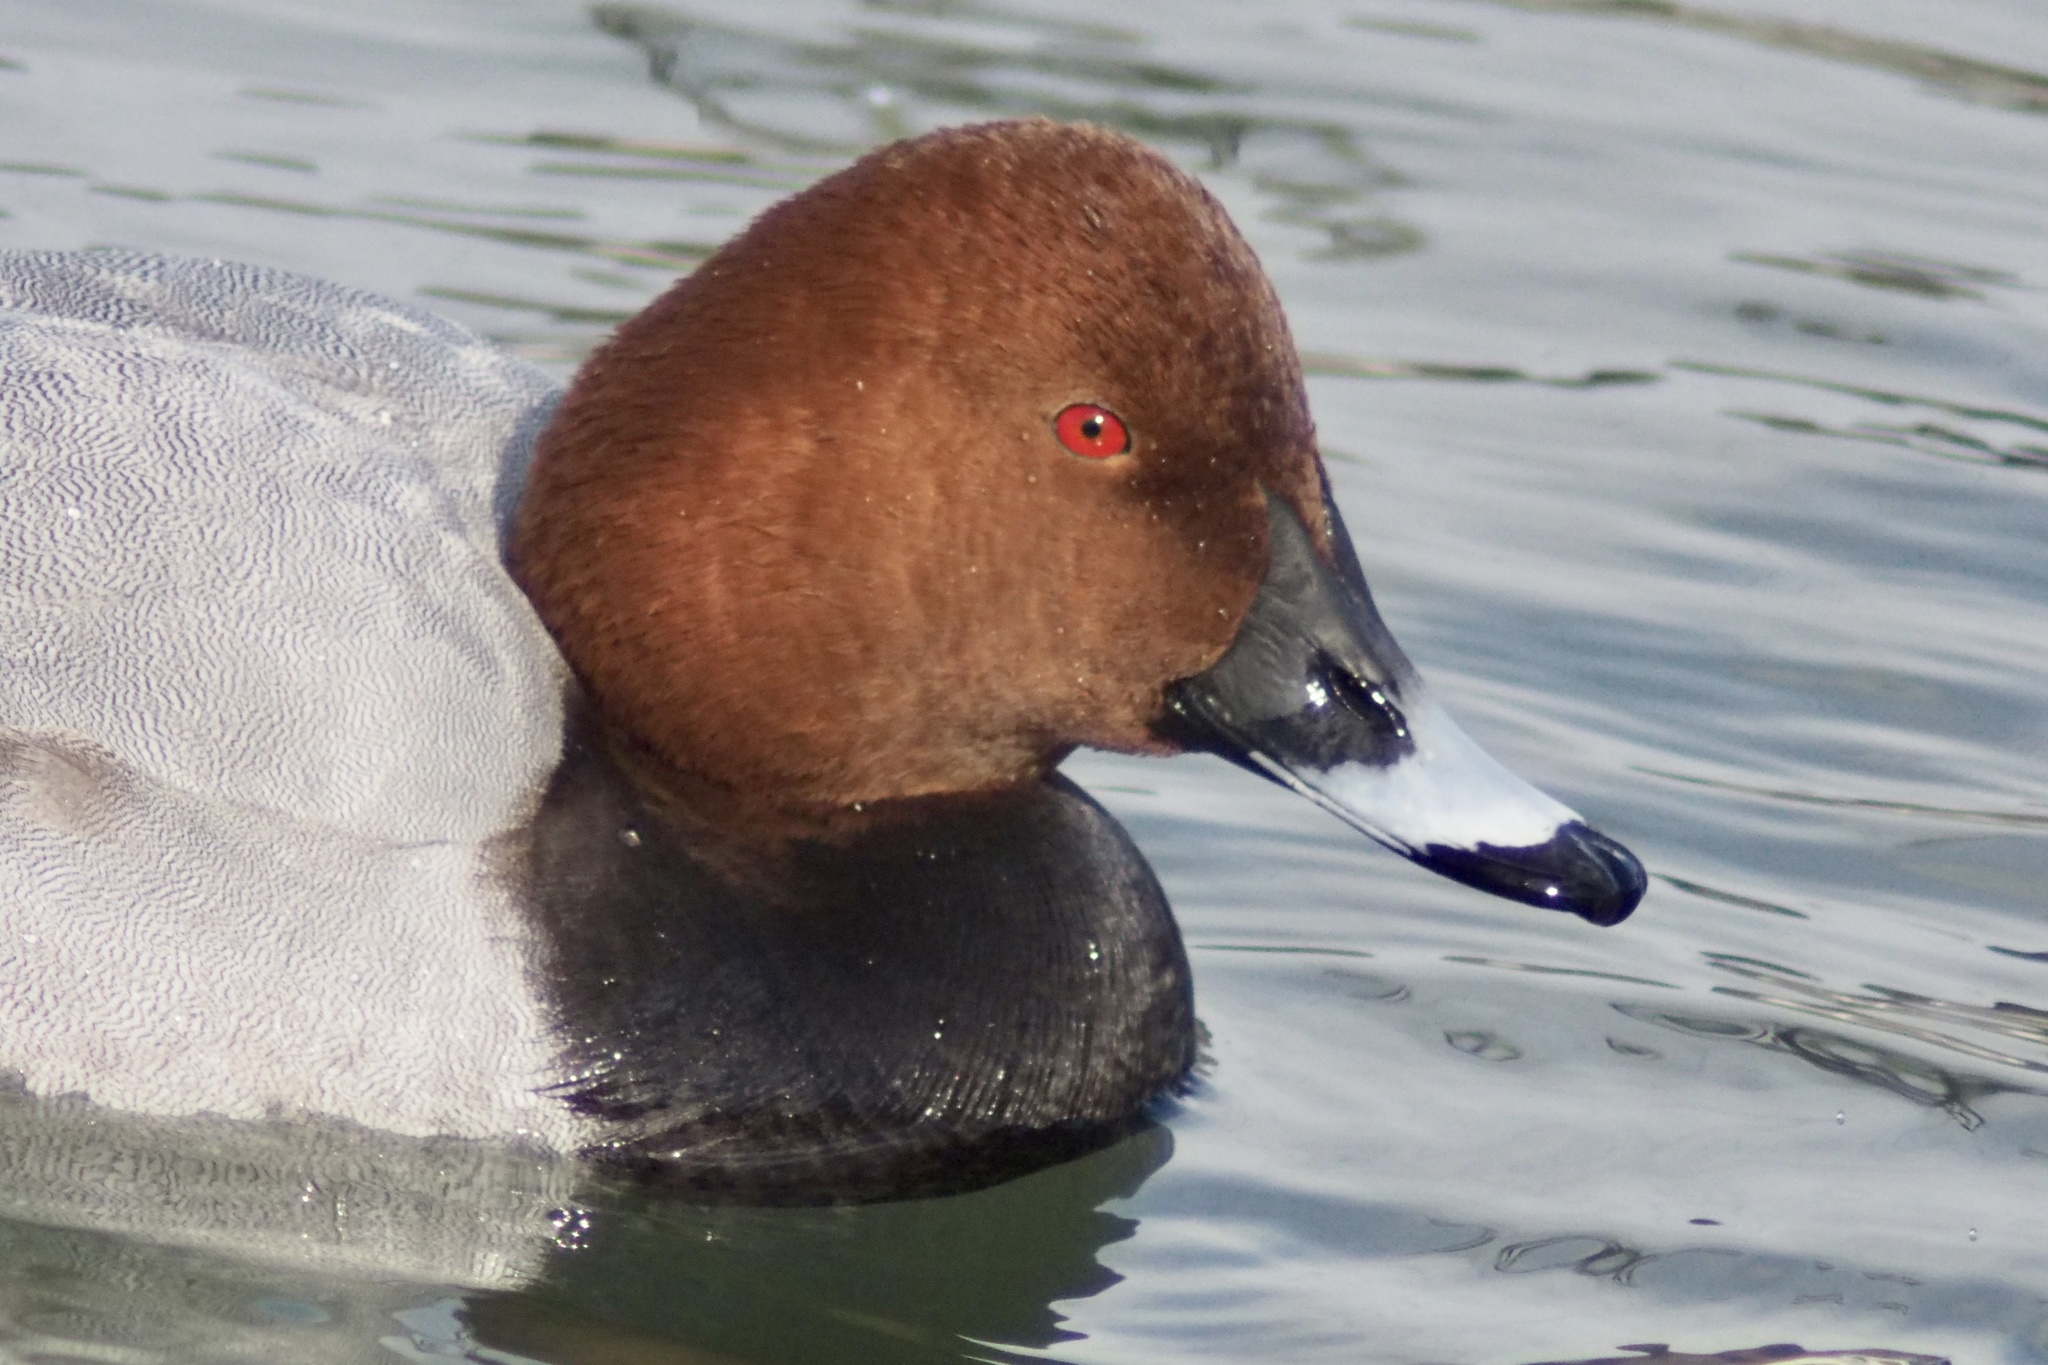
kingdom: Animalia
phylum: Chordata
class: Aves
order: Anseriformes
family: Anatidae
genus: Aythya
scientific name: Aythya ferina
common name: Common pochard
